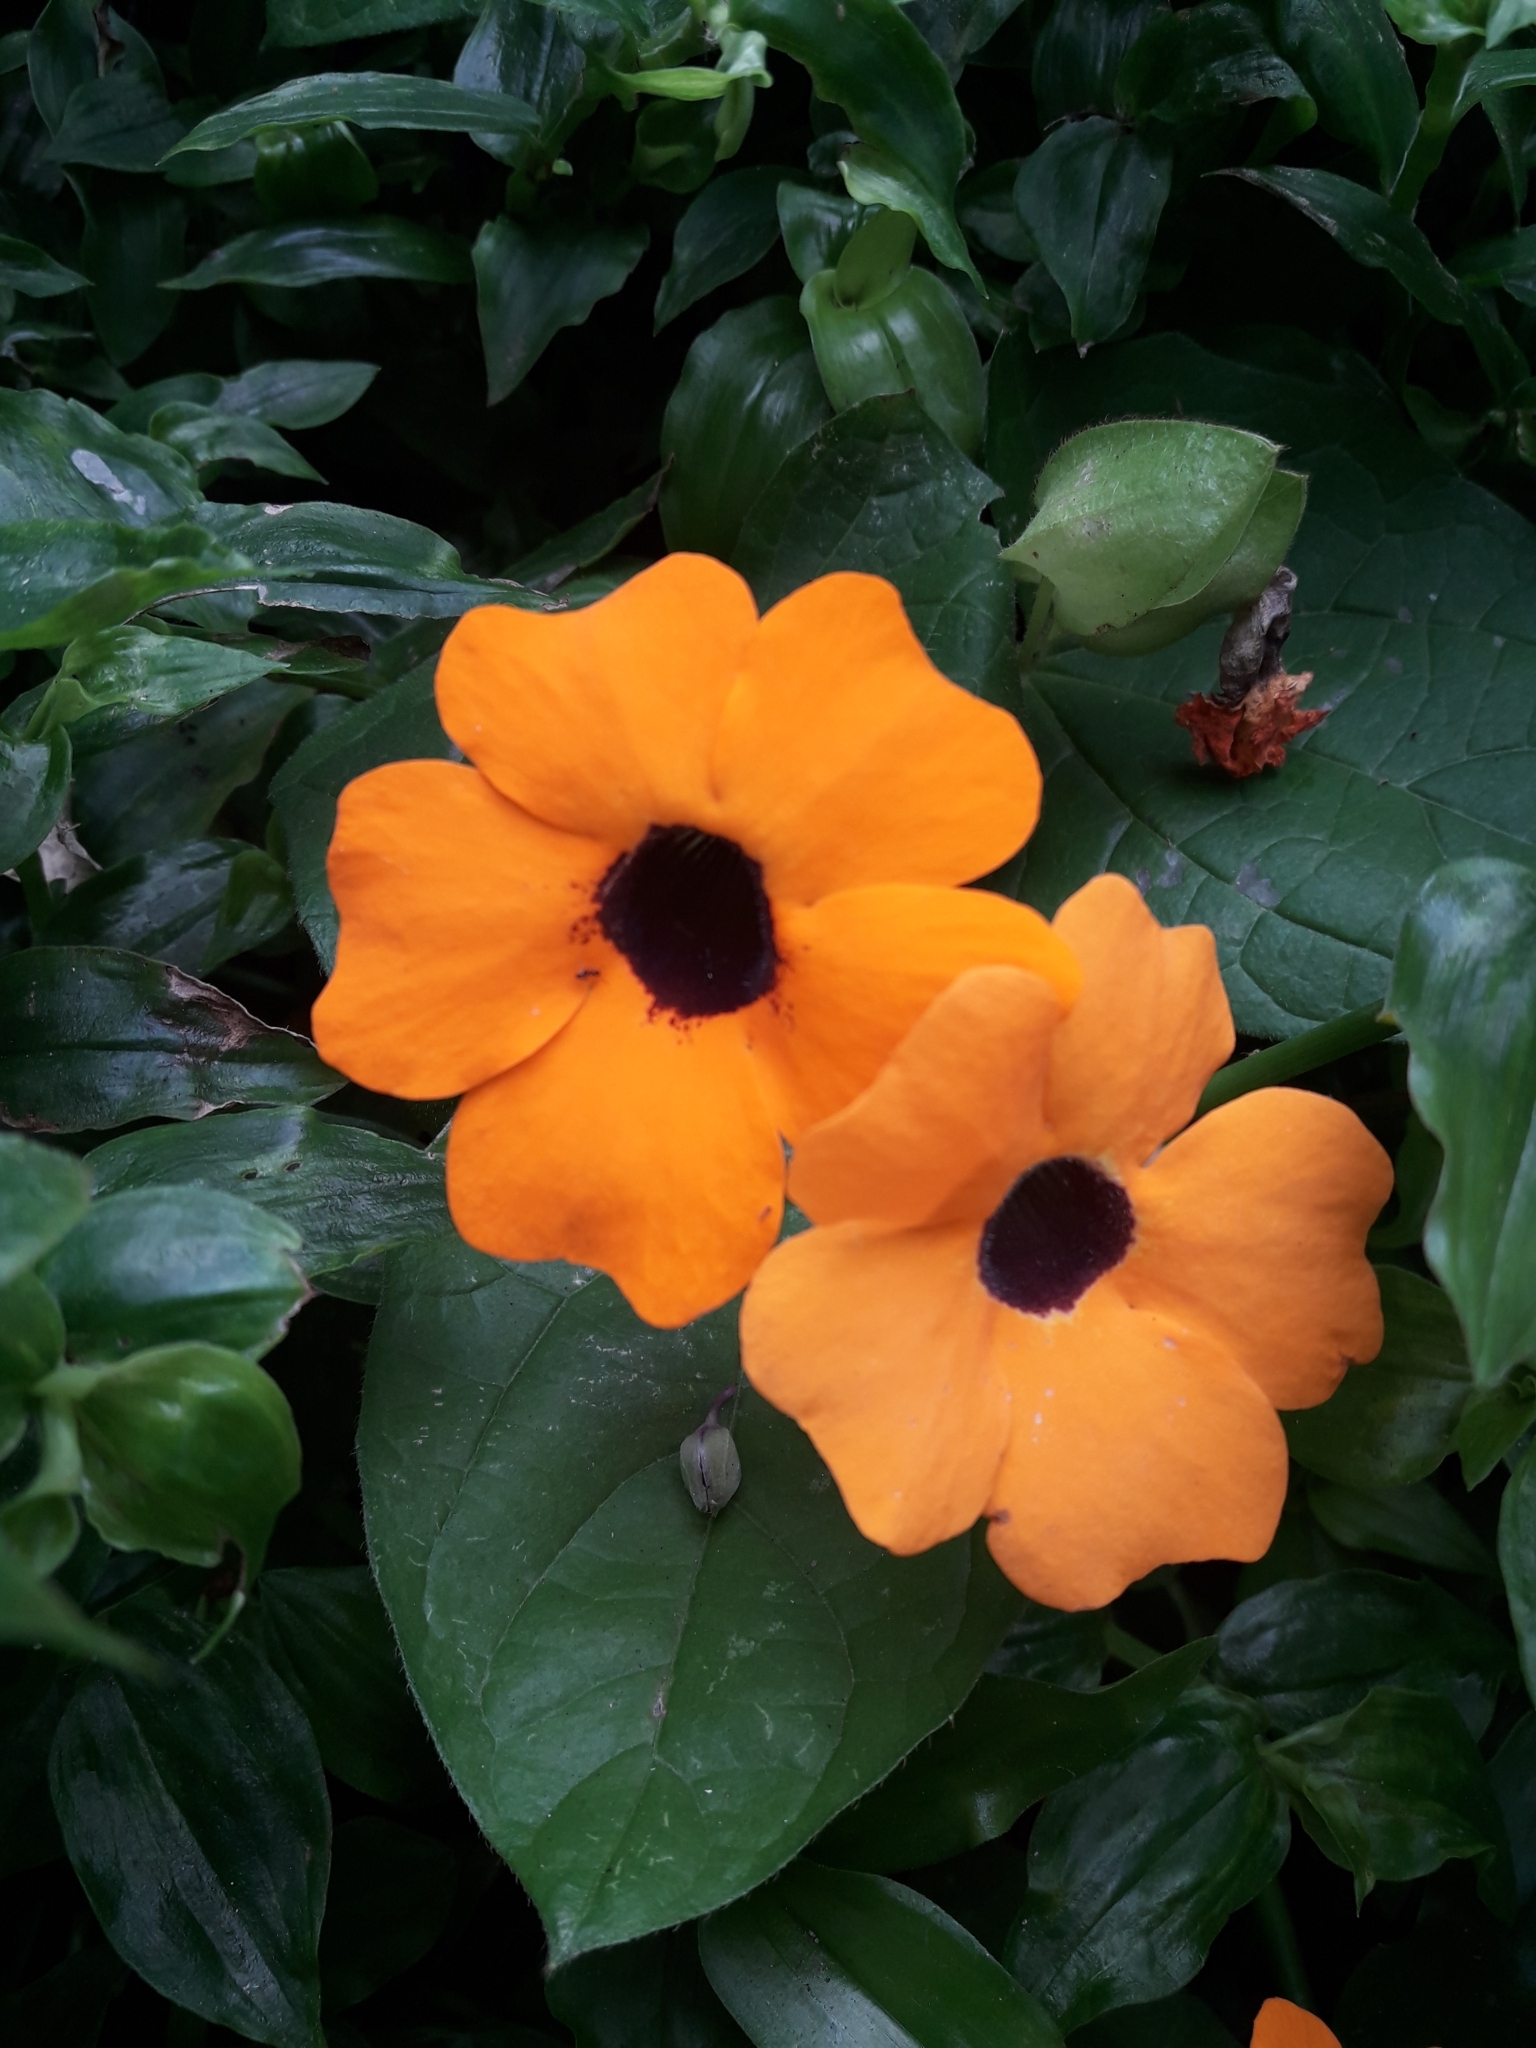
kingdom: Plantae
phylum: Tracheophyta
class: Magnoliopsida
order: Lamiales
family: Acanthaceae
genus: Thunbergia
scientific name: Thunbergia alata
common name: Blackeyed susan vine
